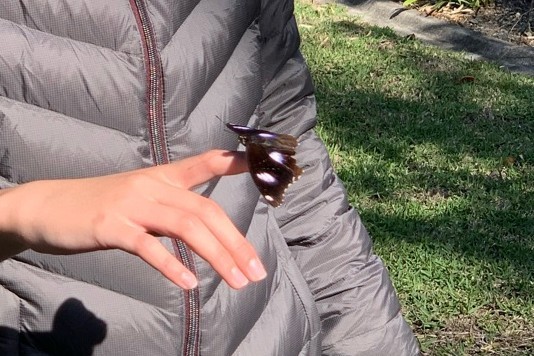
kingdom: Animalia
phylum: Arthropoda
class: Insecta
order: Lepidoptera
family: Nymphalidae
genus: Hypolimnas
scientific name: Hypolimnas bolina
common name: Great eggfly
